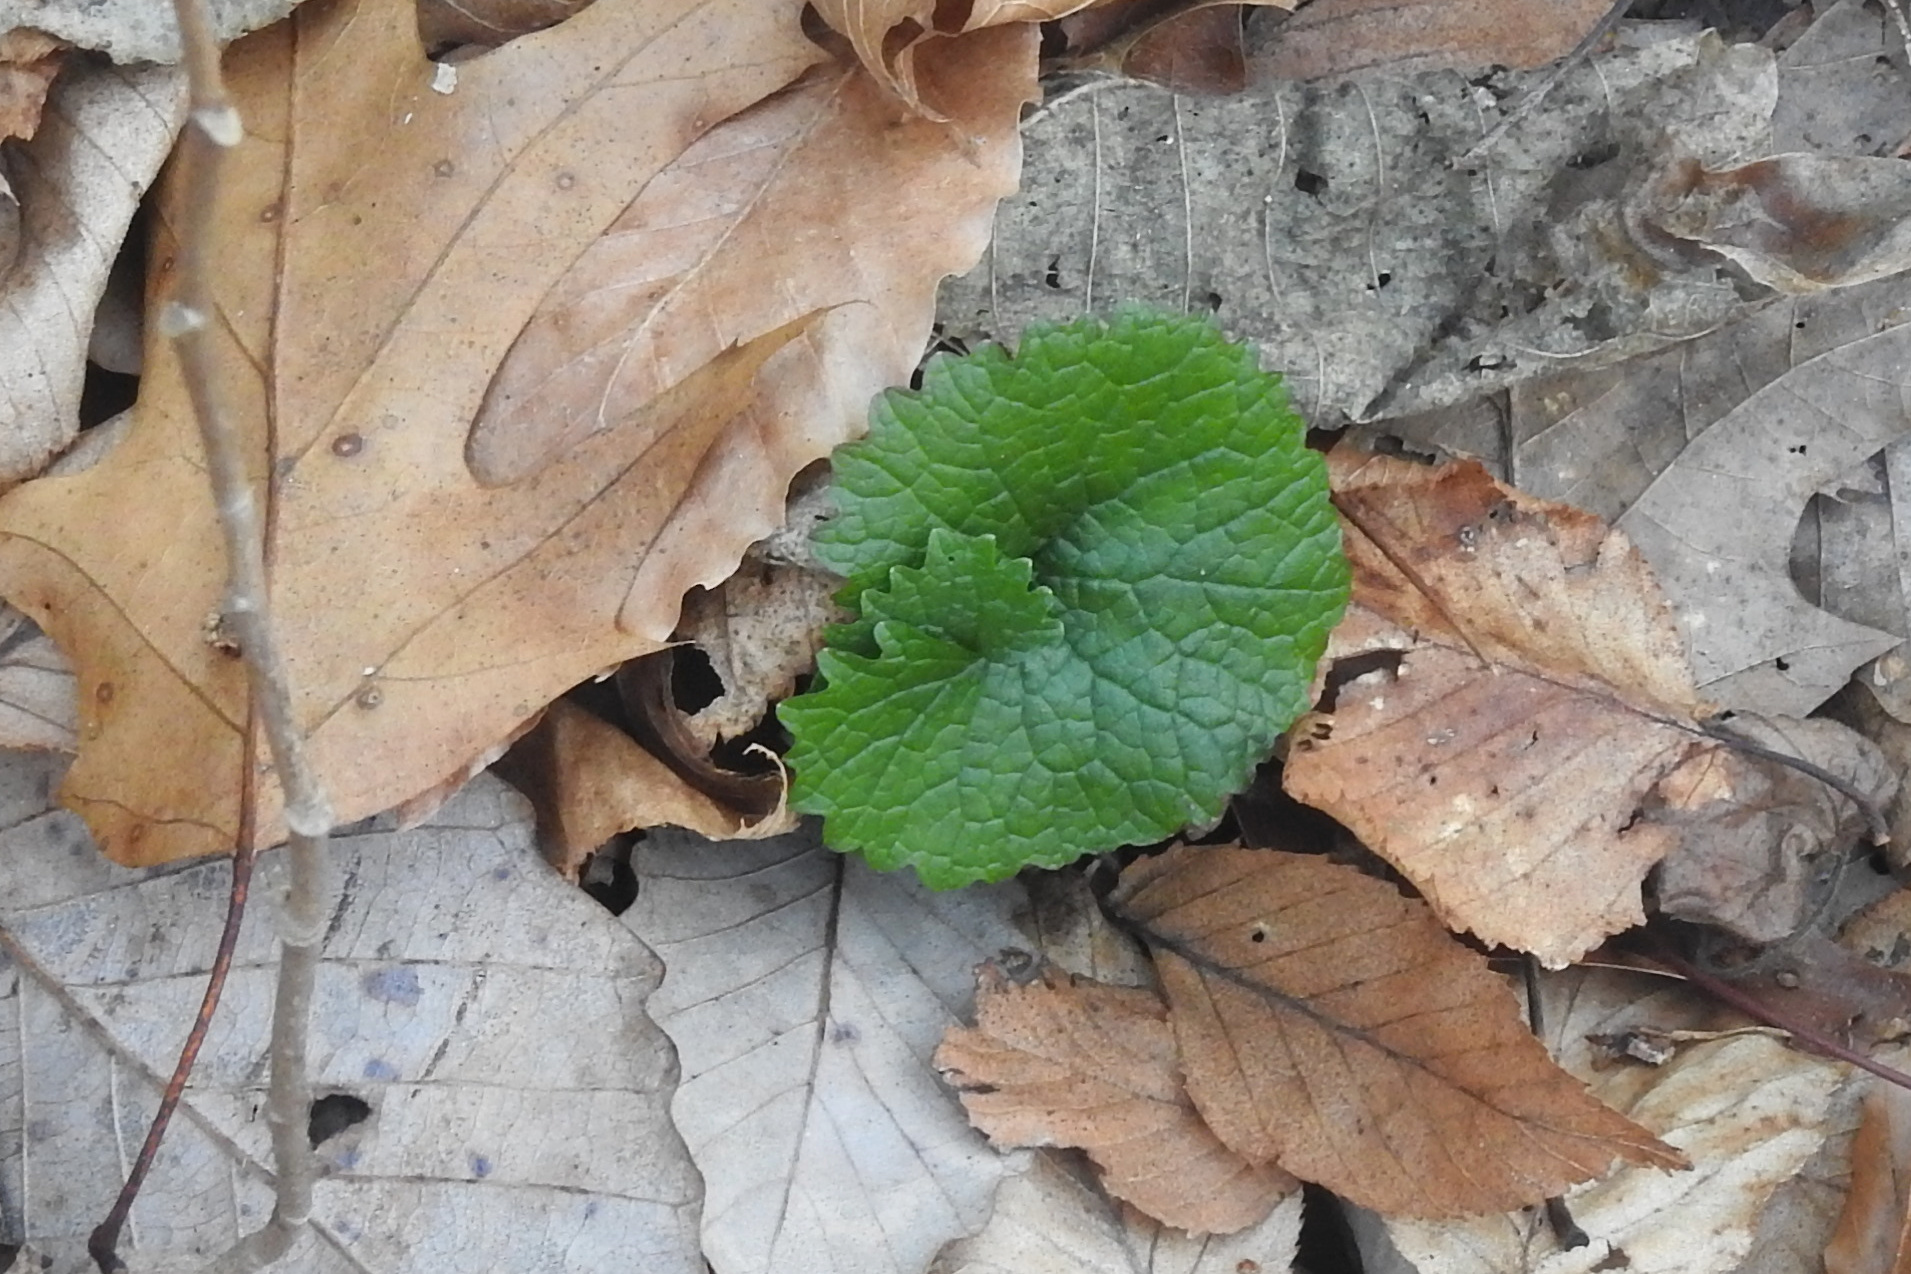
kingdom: Plantae
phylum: Tracheophyta
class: Magnoliopsida
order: Brassicales
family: Brassicaceae
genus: Alliaria
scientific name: Alliaria petiolata
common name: Garlic mustard
